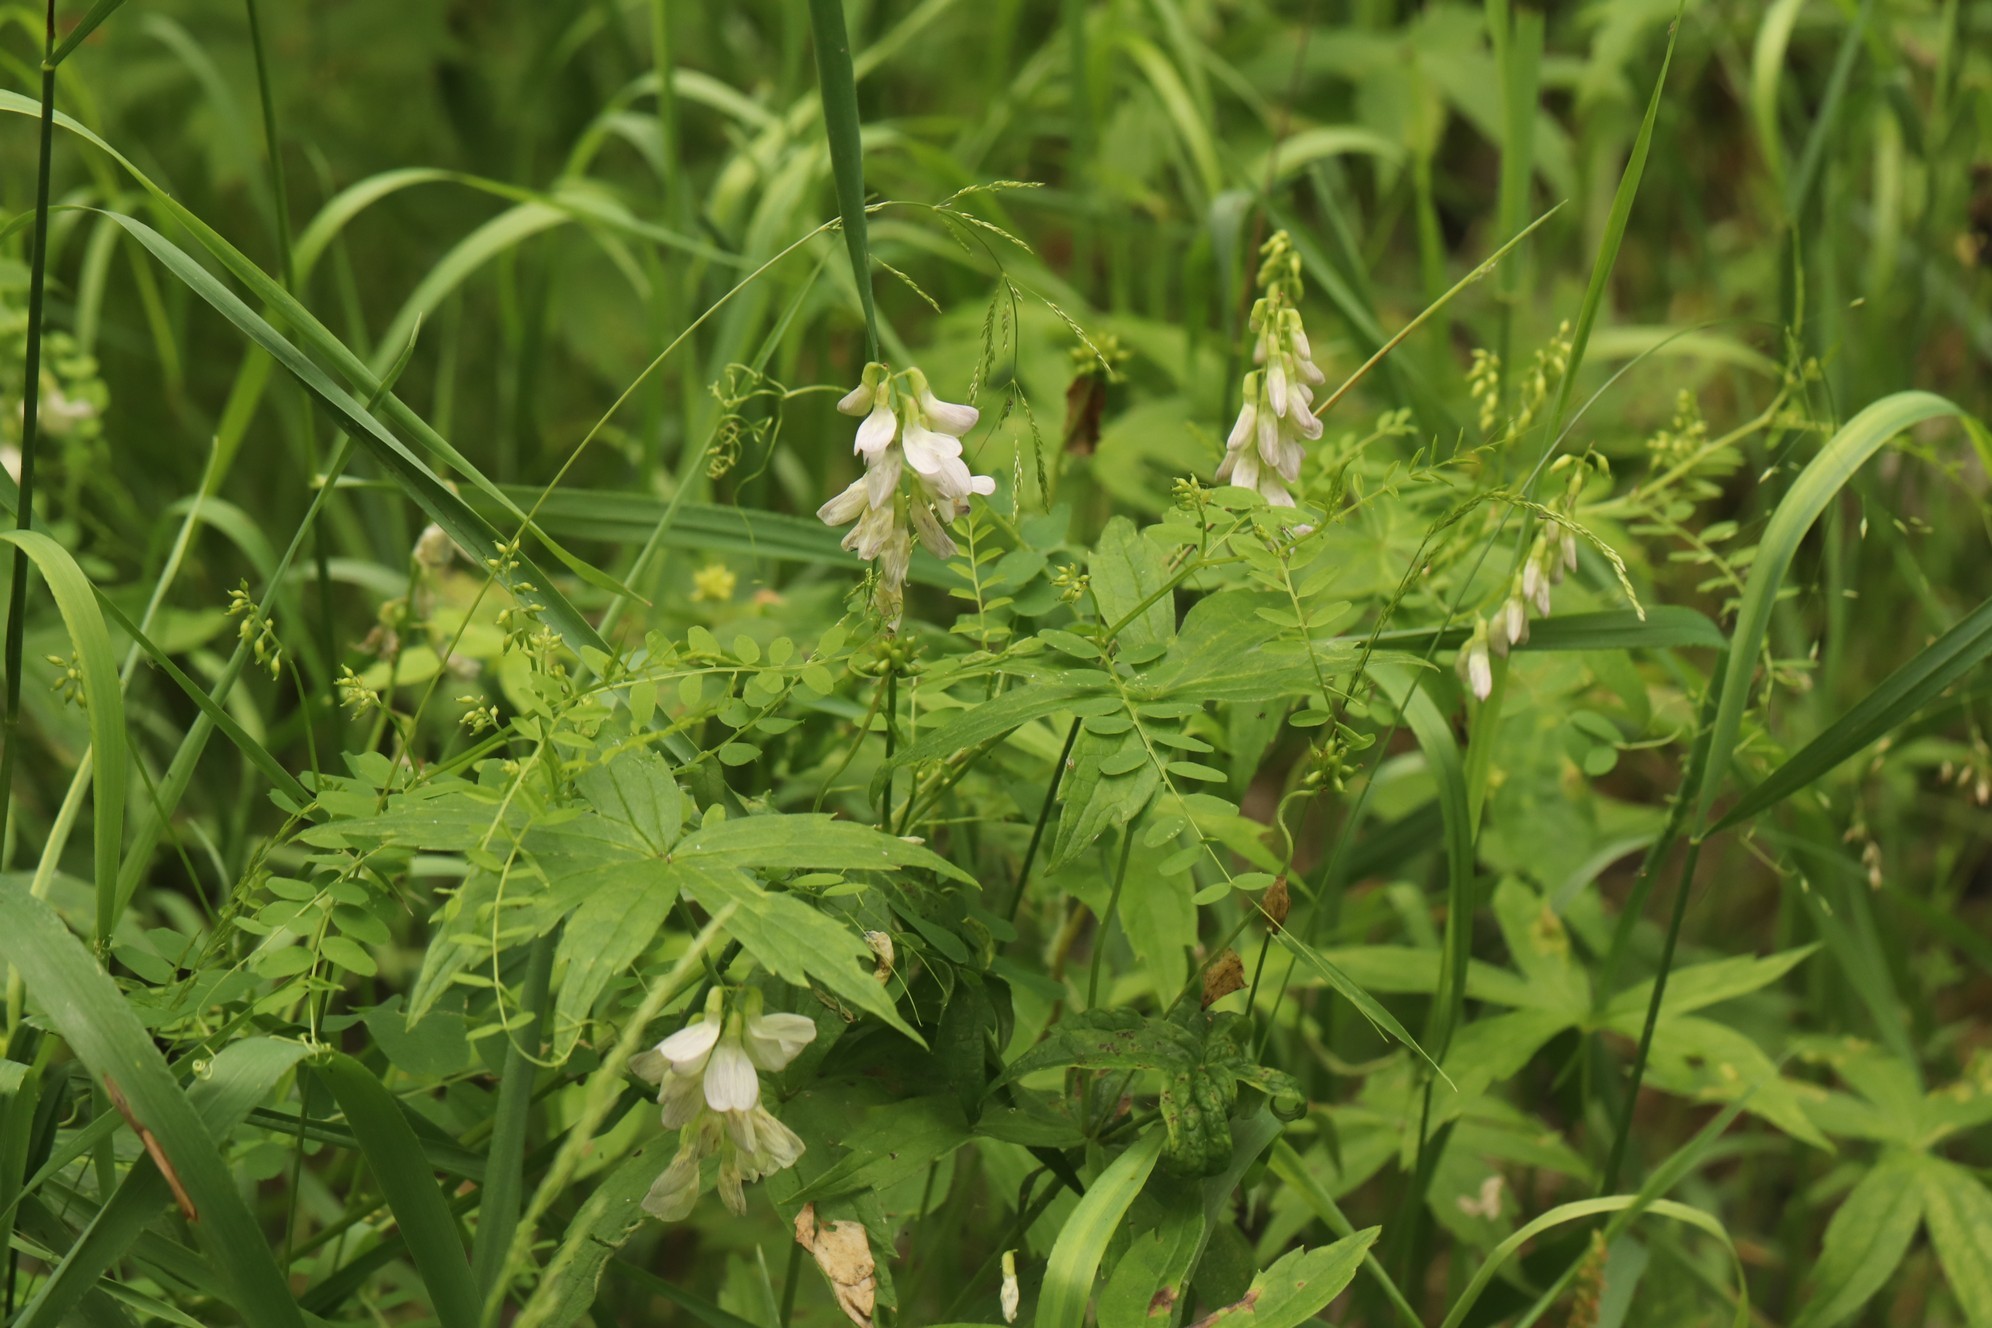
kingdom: Plantae
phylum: Tracheophyta
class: Magnoliopsida
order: Fabales
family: Fabaceae
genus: Vicia
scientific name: Vicia sylvatica
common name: Wood vetch
